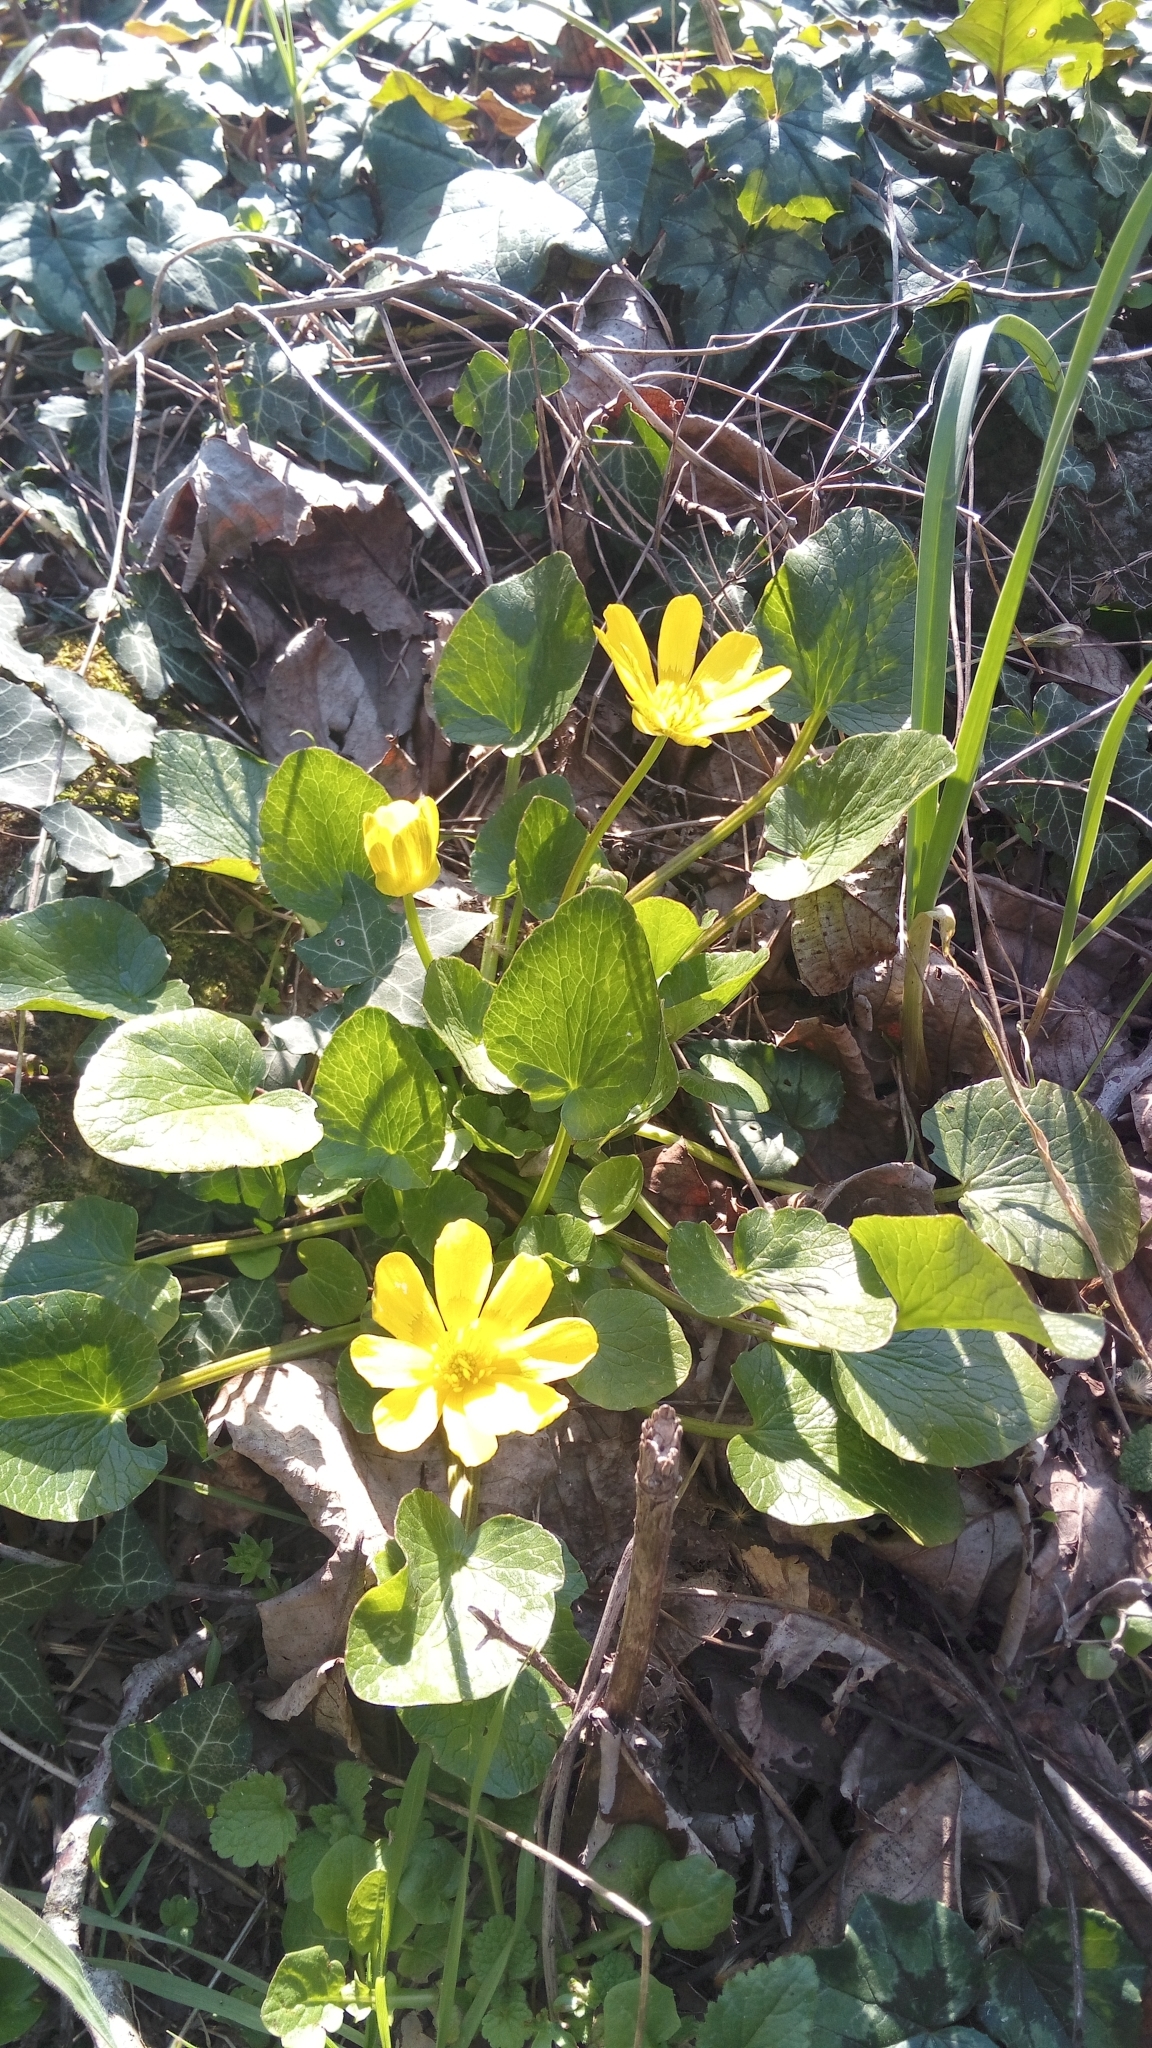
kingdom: Plantae
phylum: Tracheophyta
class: Magnoliopsida
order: Ranunculales
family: Ranunculaceae
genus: Ficaria
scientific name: Ficaria verna
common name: Lesser celandine
